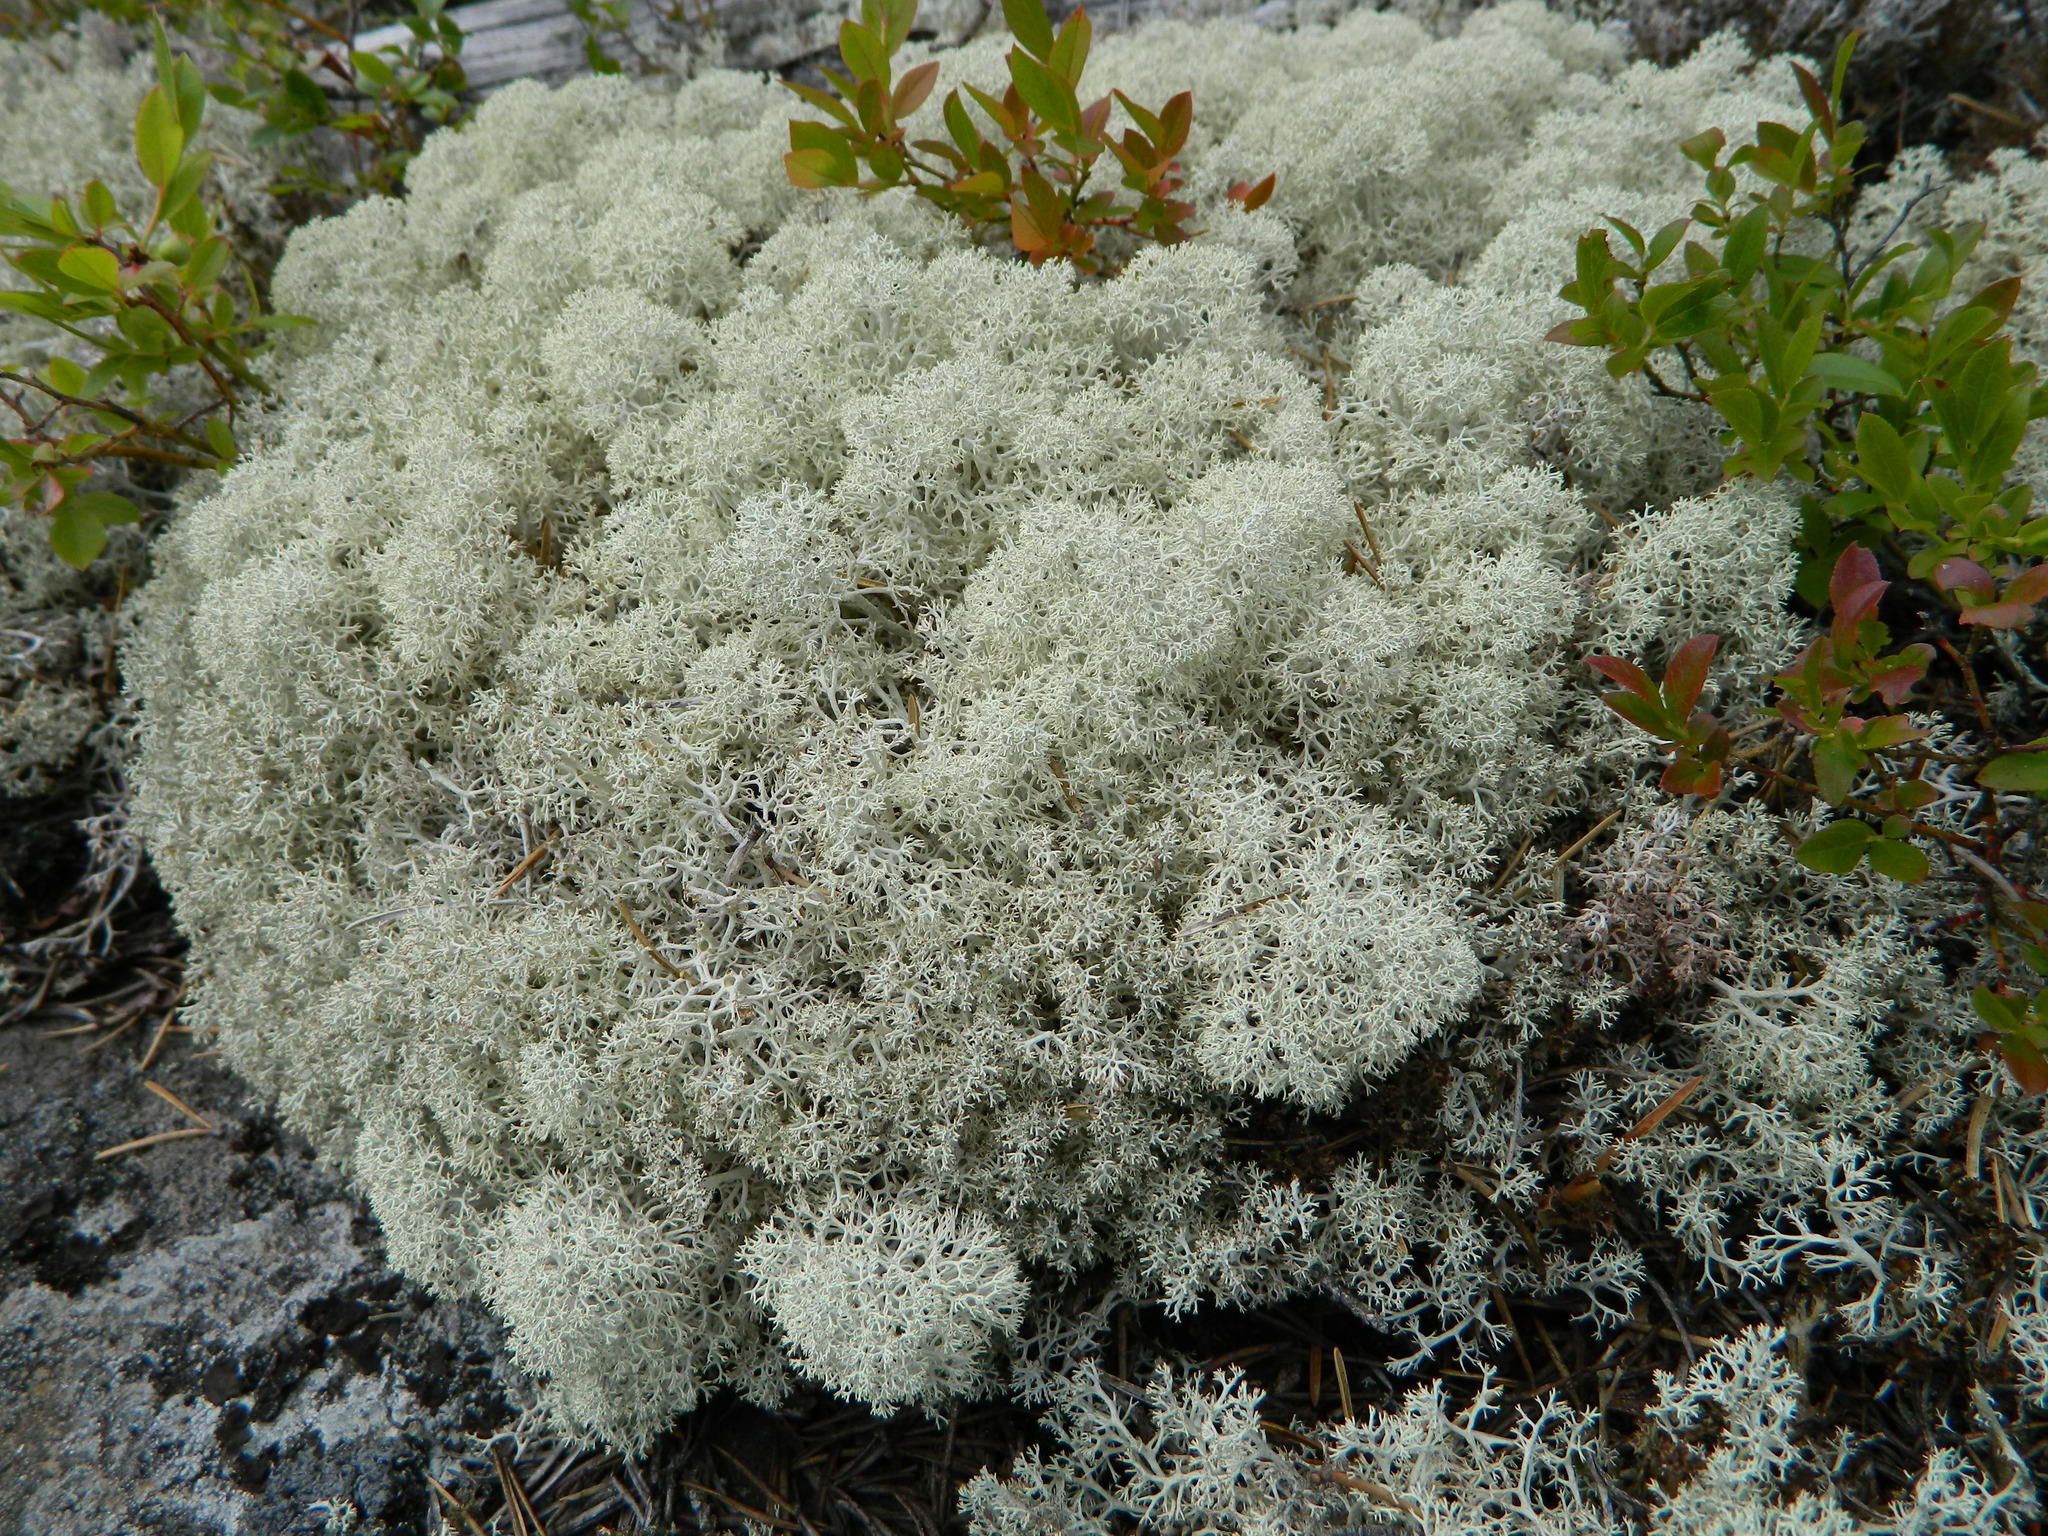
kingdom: Fungi
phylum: Ascomycota
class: Lecanoromycetes
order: Lecanorales
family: Cladoniaceae
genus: Cladonia
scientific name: Cladonia stellaris
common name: Star-tipped reindeer lichen
